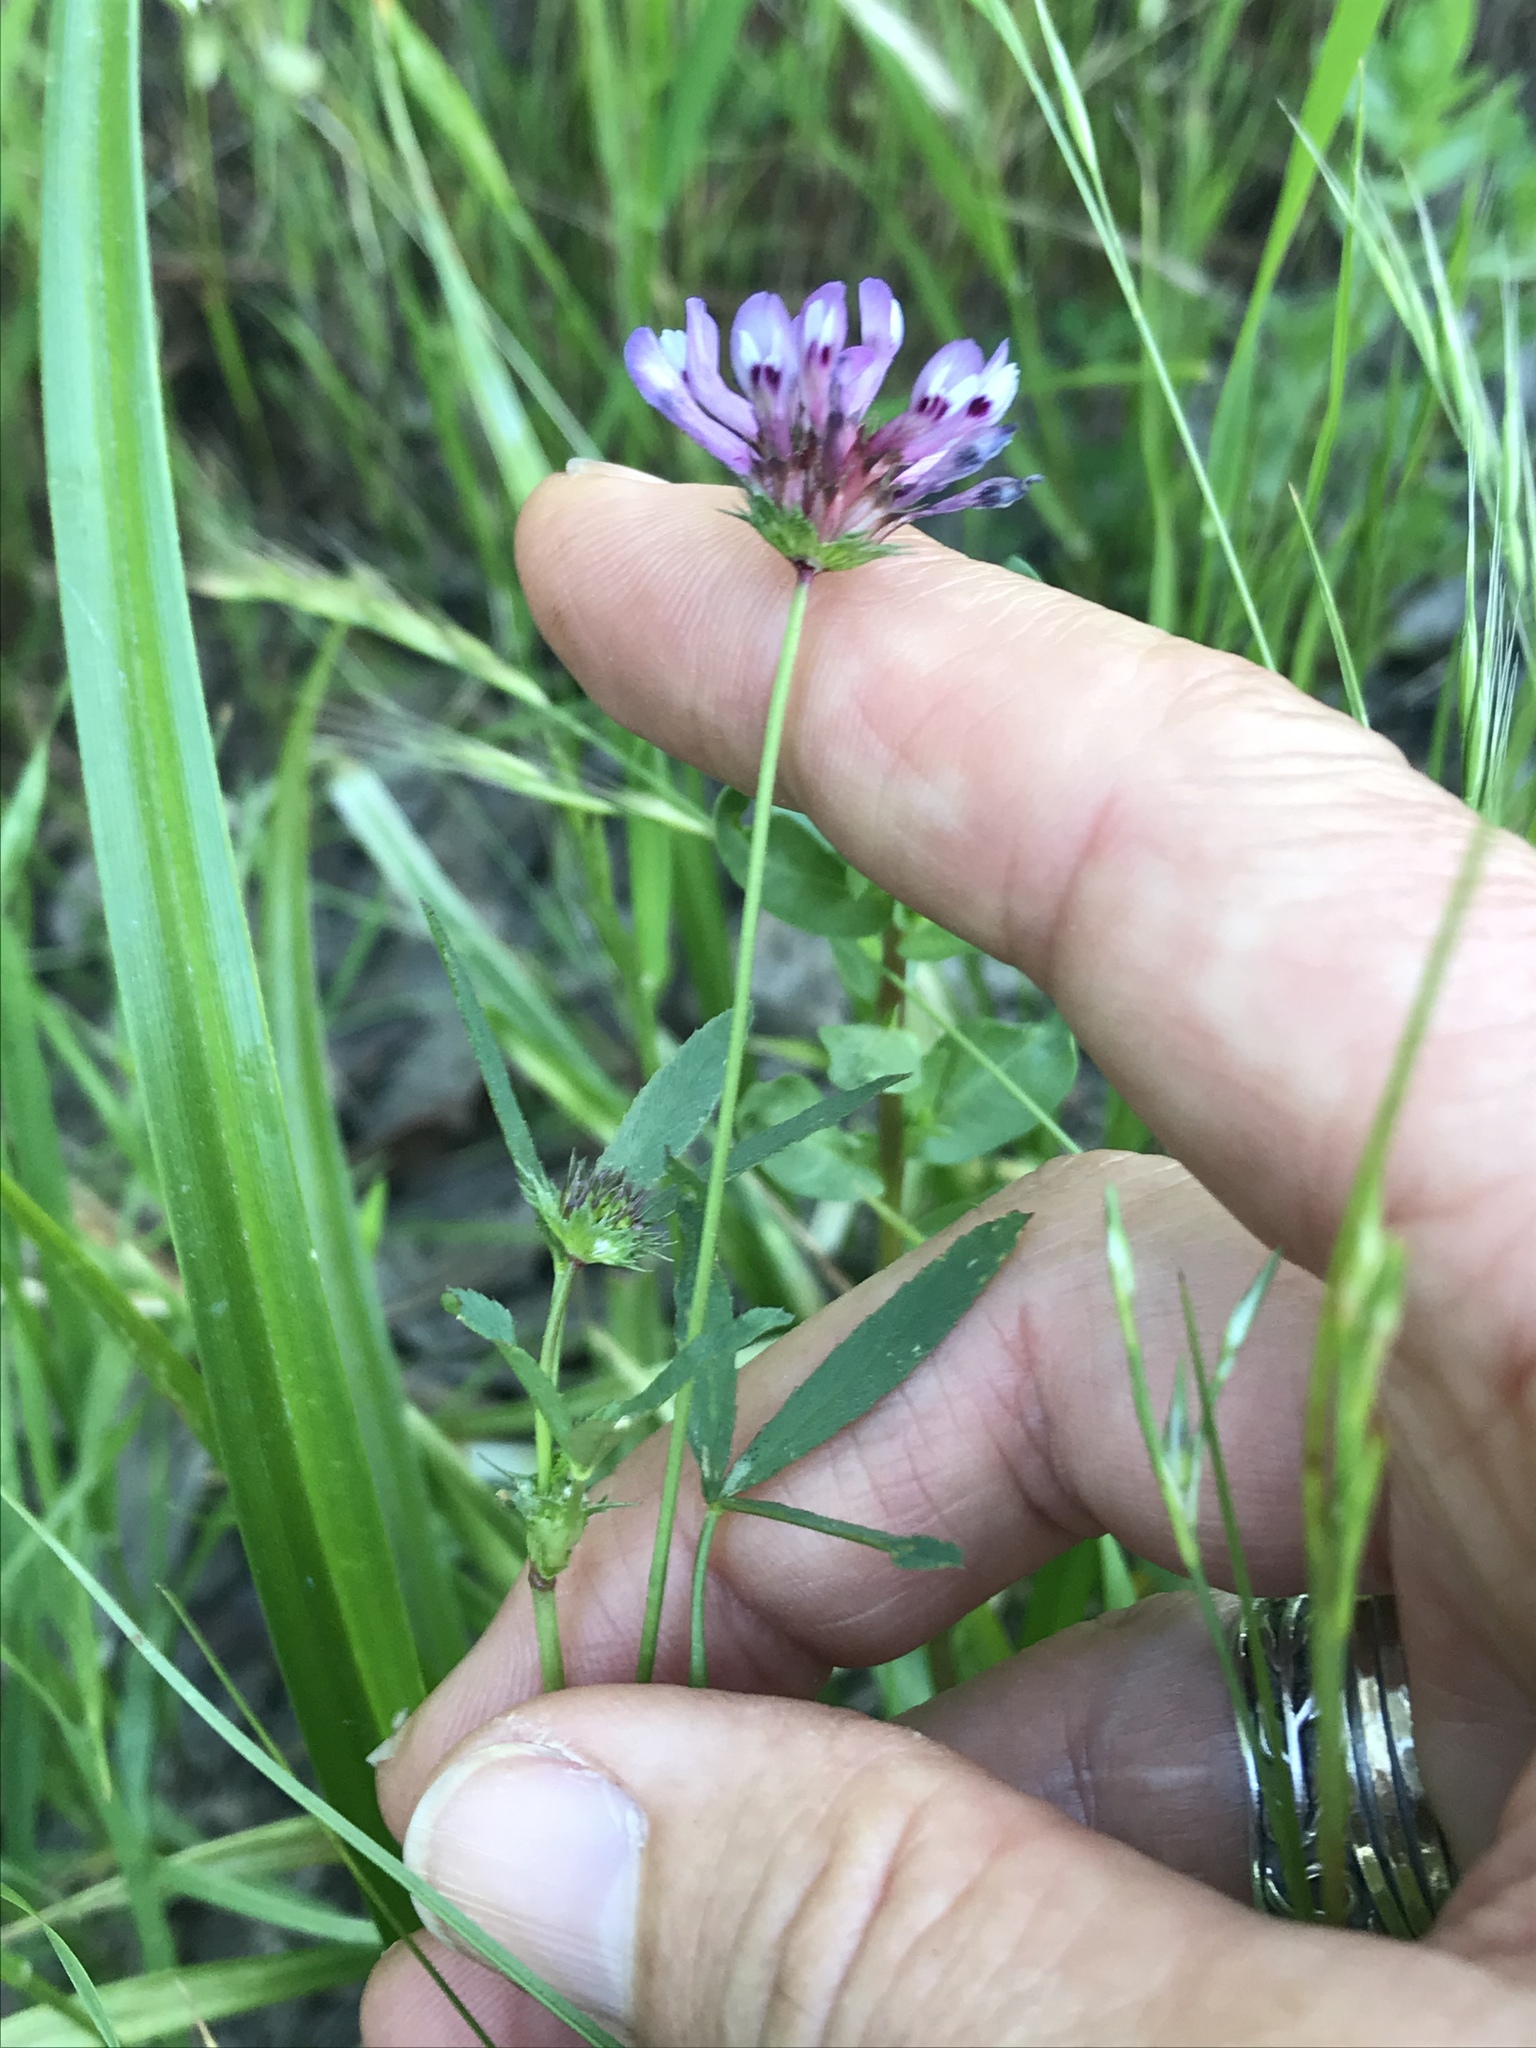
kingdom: Plantae
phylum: Tracheophyta
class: Magnoliopsida
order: Fabales
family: Fabaceae
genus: Trifolium
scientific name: Trifolium willdenovii
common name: Tomcat clover
